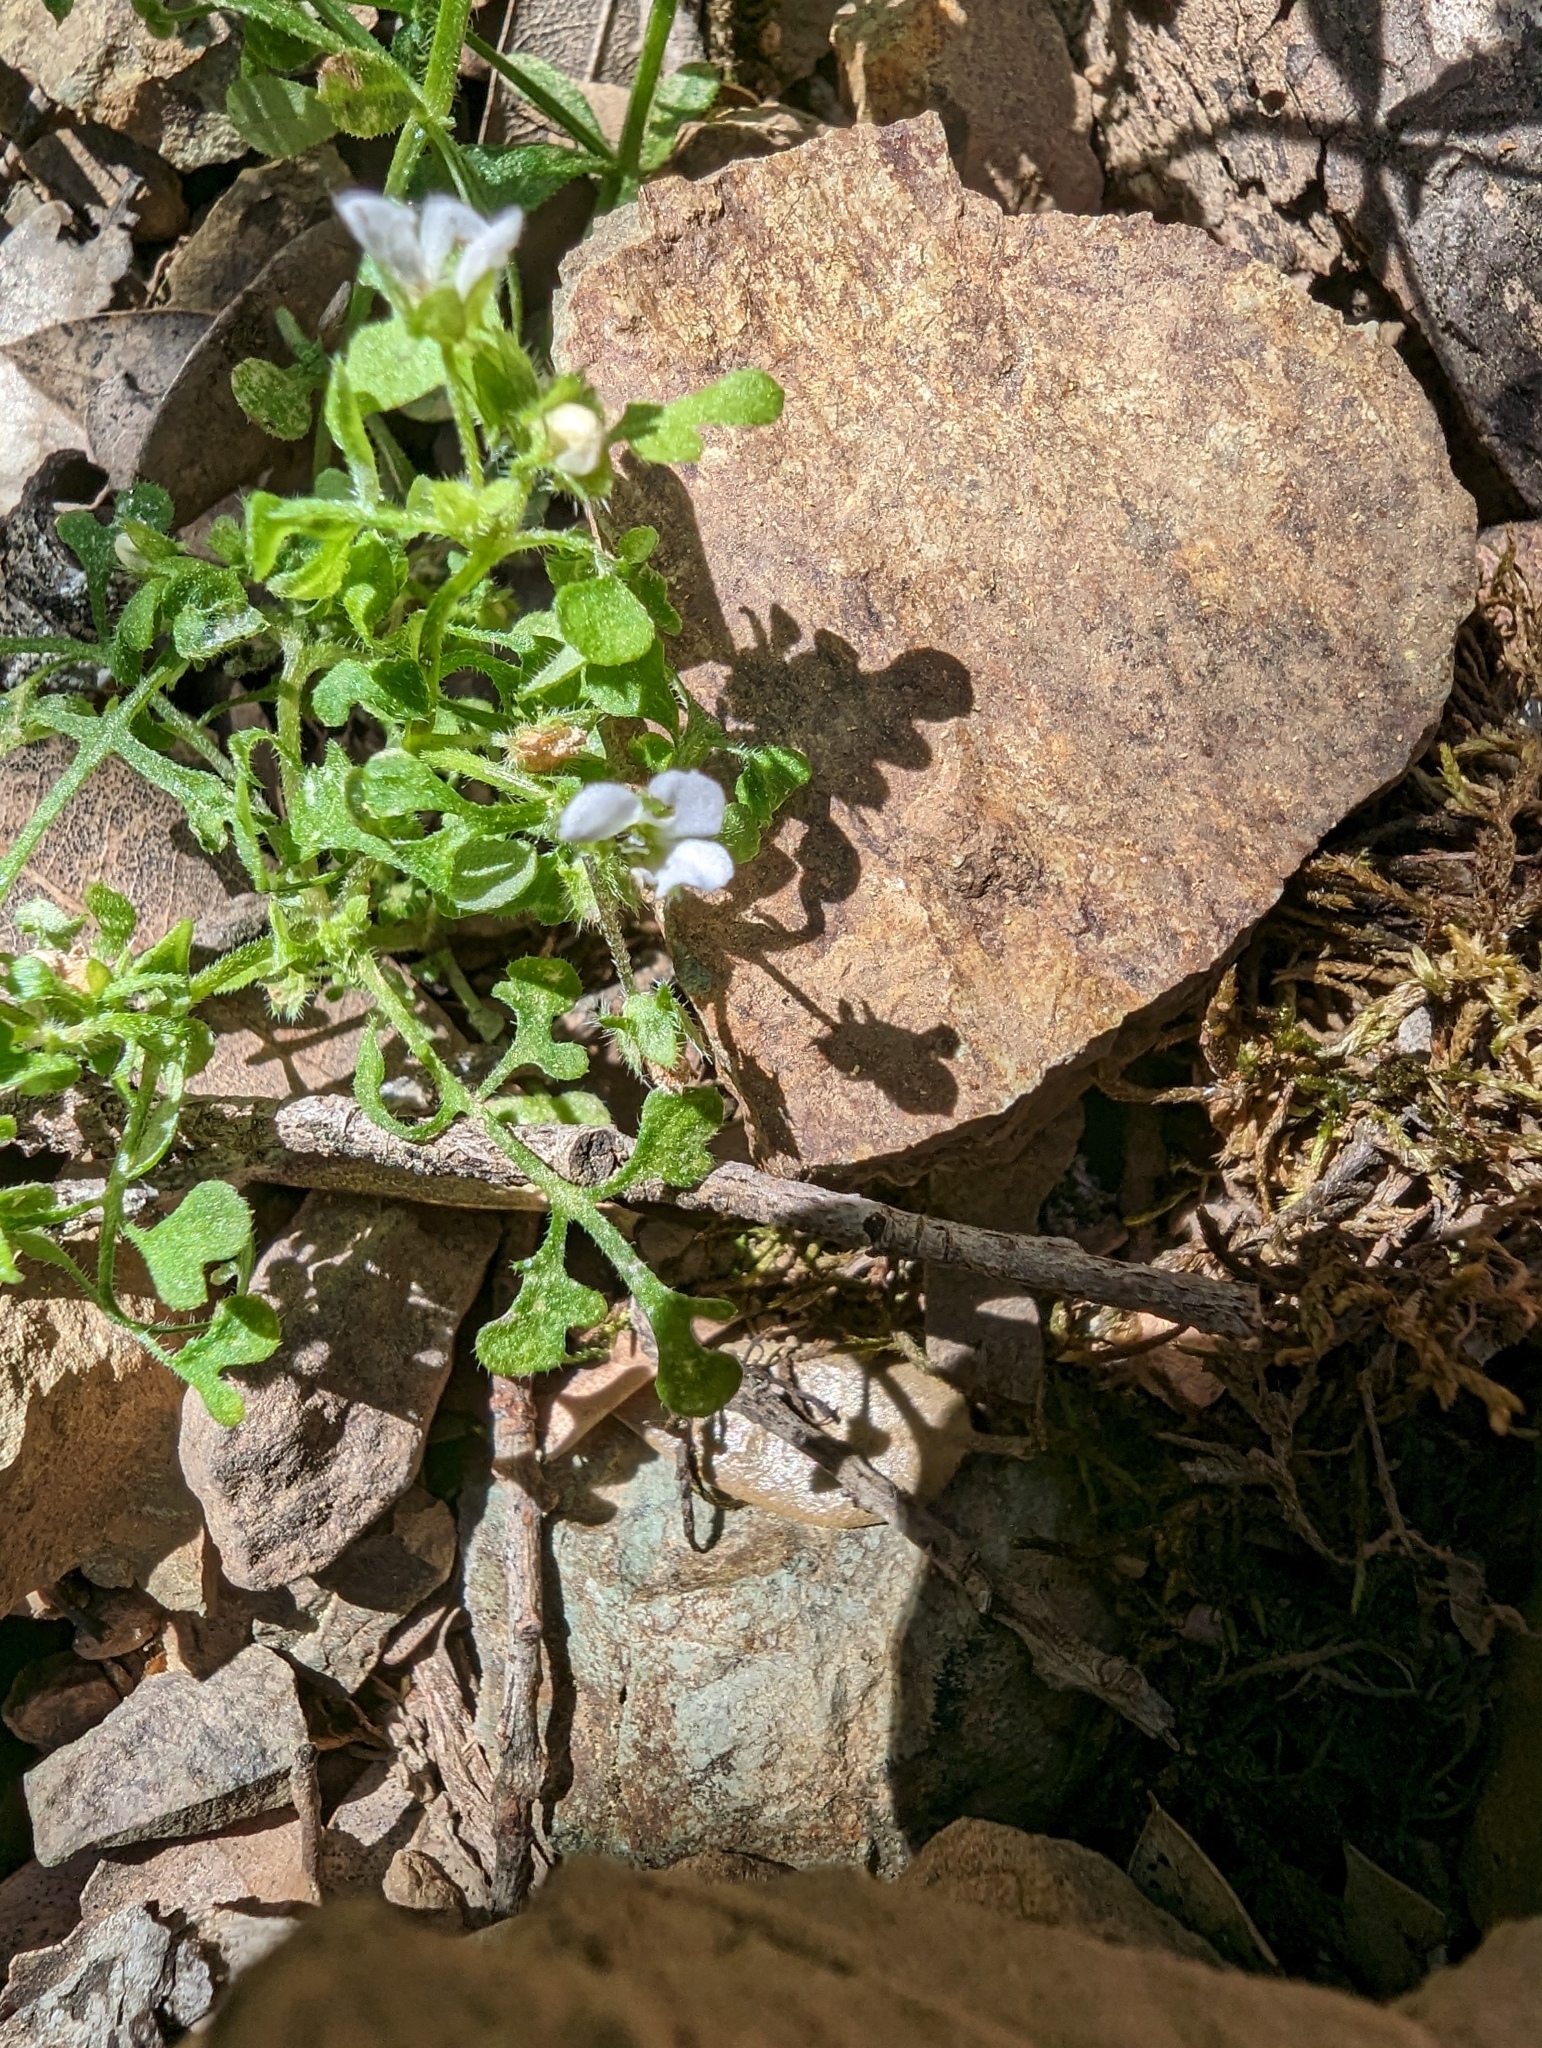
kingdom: Plantae
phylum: Tracheophyta
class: Magnoliopsida
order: Boraginales
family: Hydrophyllaceae
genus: Nemophila
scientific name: Nemophila heterophylla
